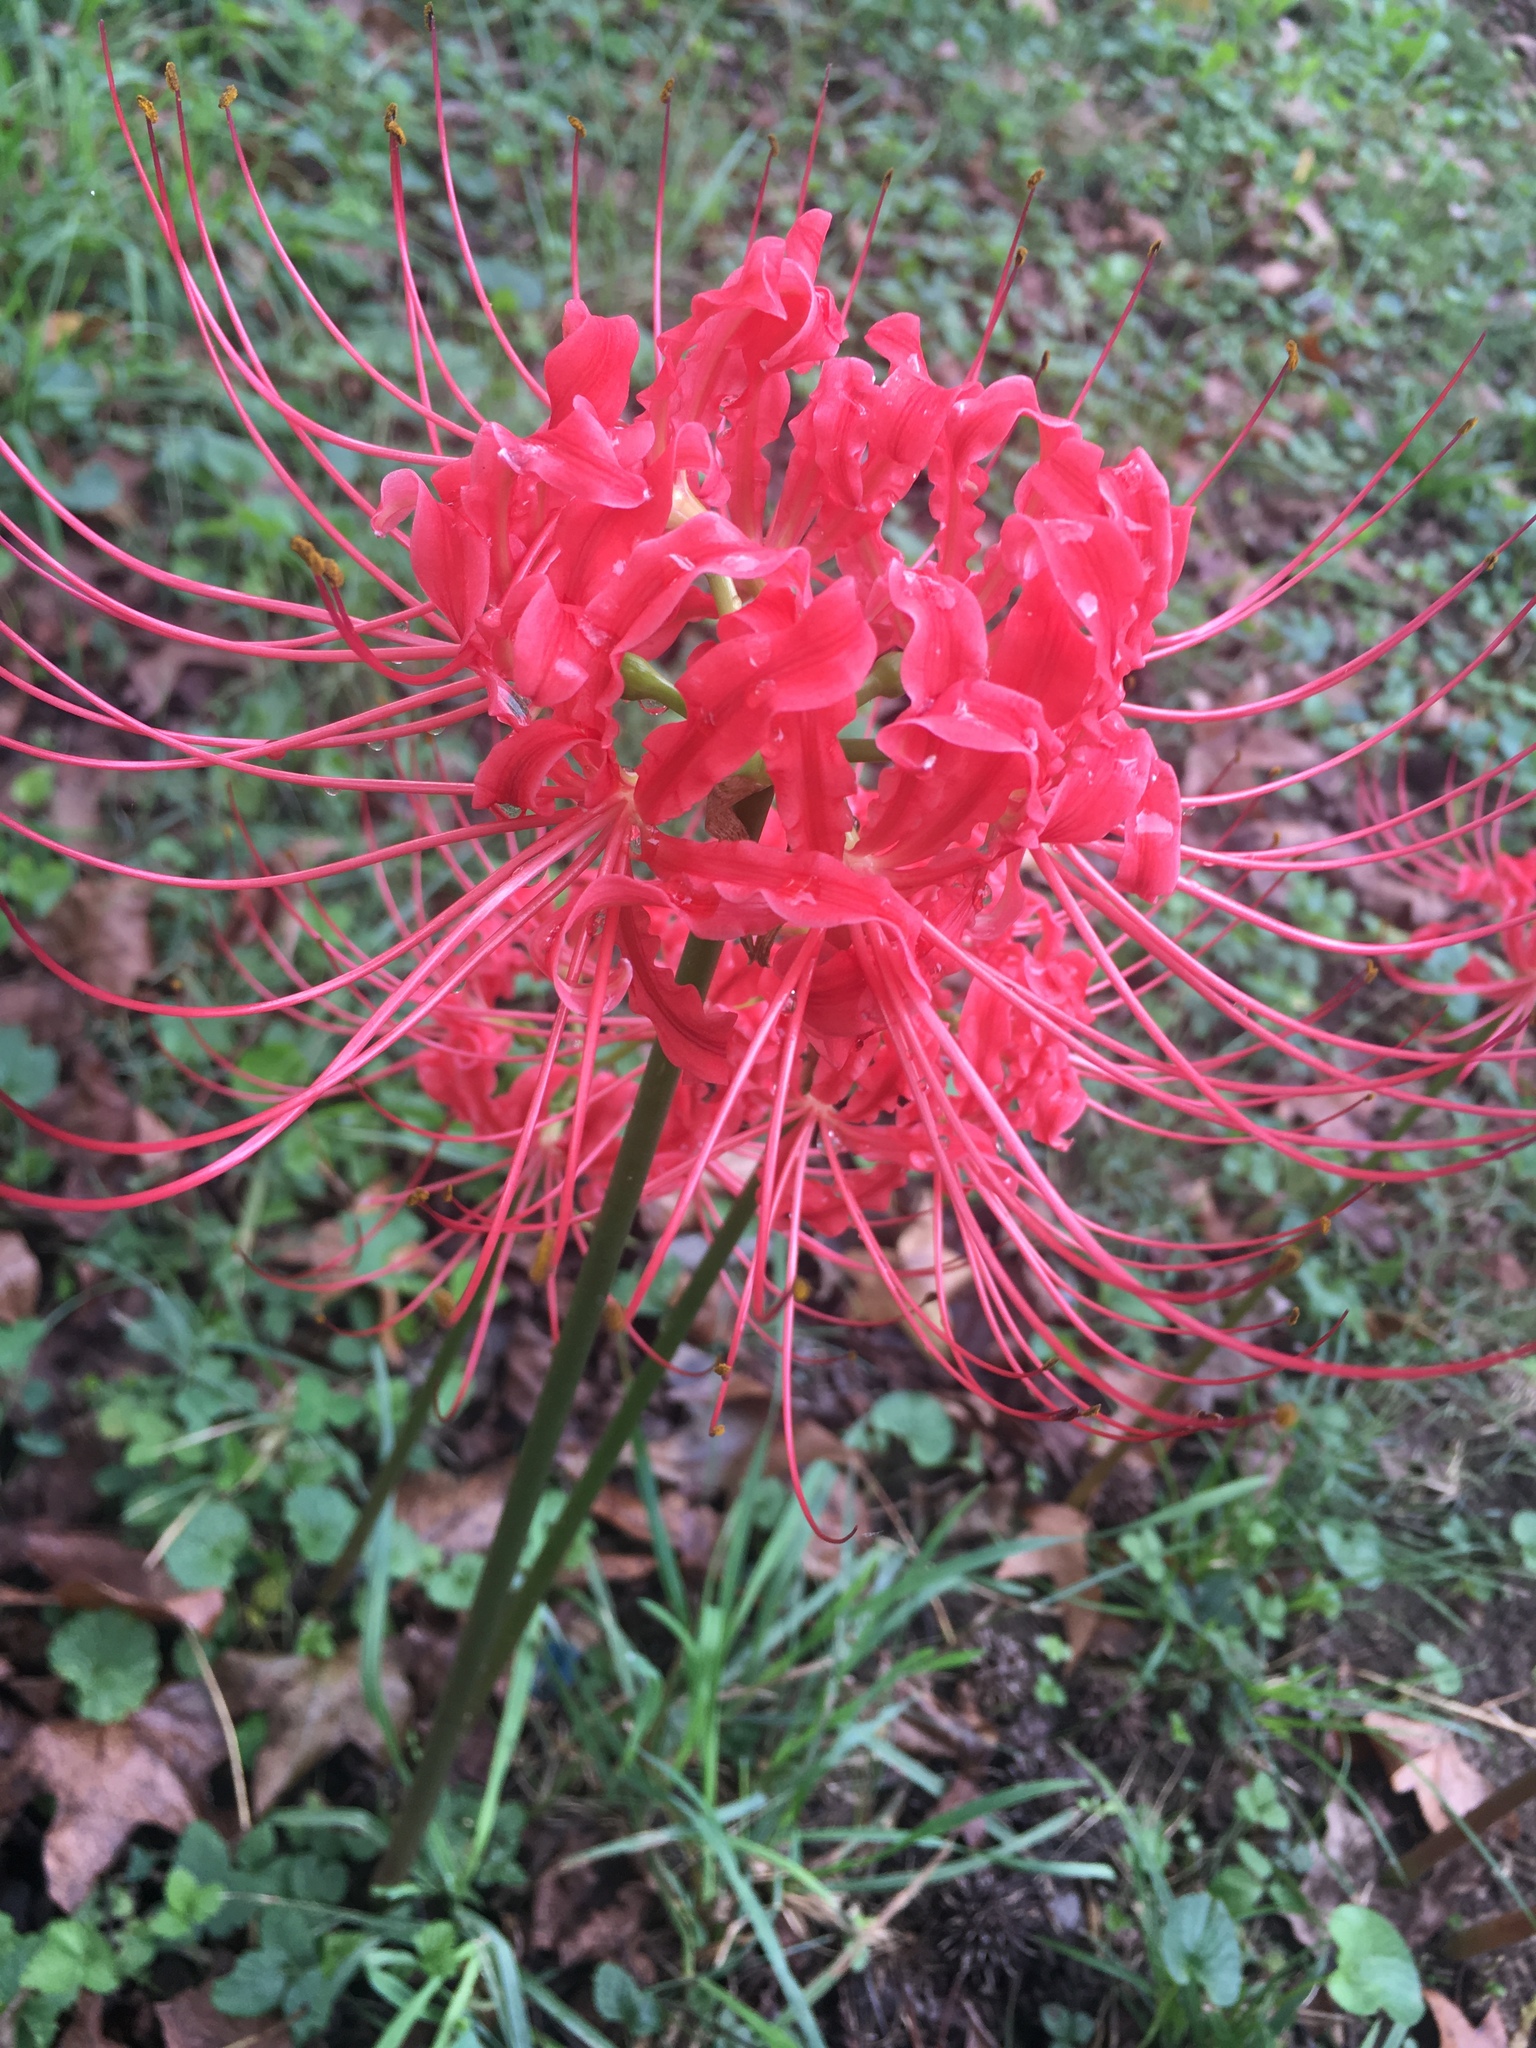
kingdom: Plantae
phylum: Tracheophyta
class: Liliopsida
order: Asparagales
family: Amaryllidaceae
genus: Lycoris
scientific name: Lycoris radiata
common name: Red spider lily
